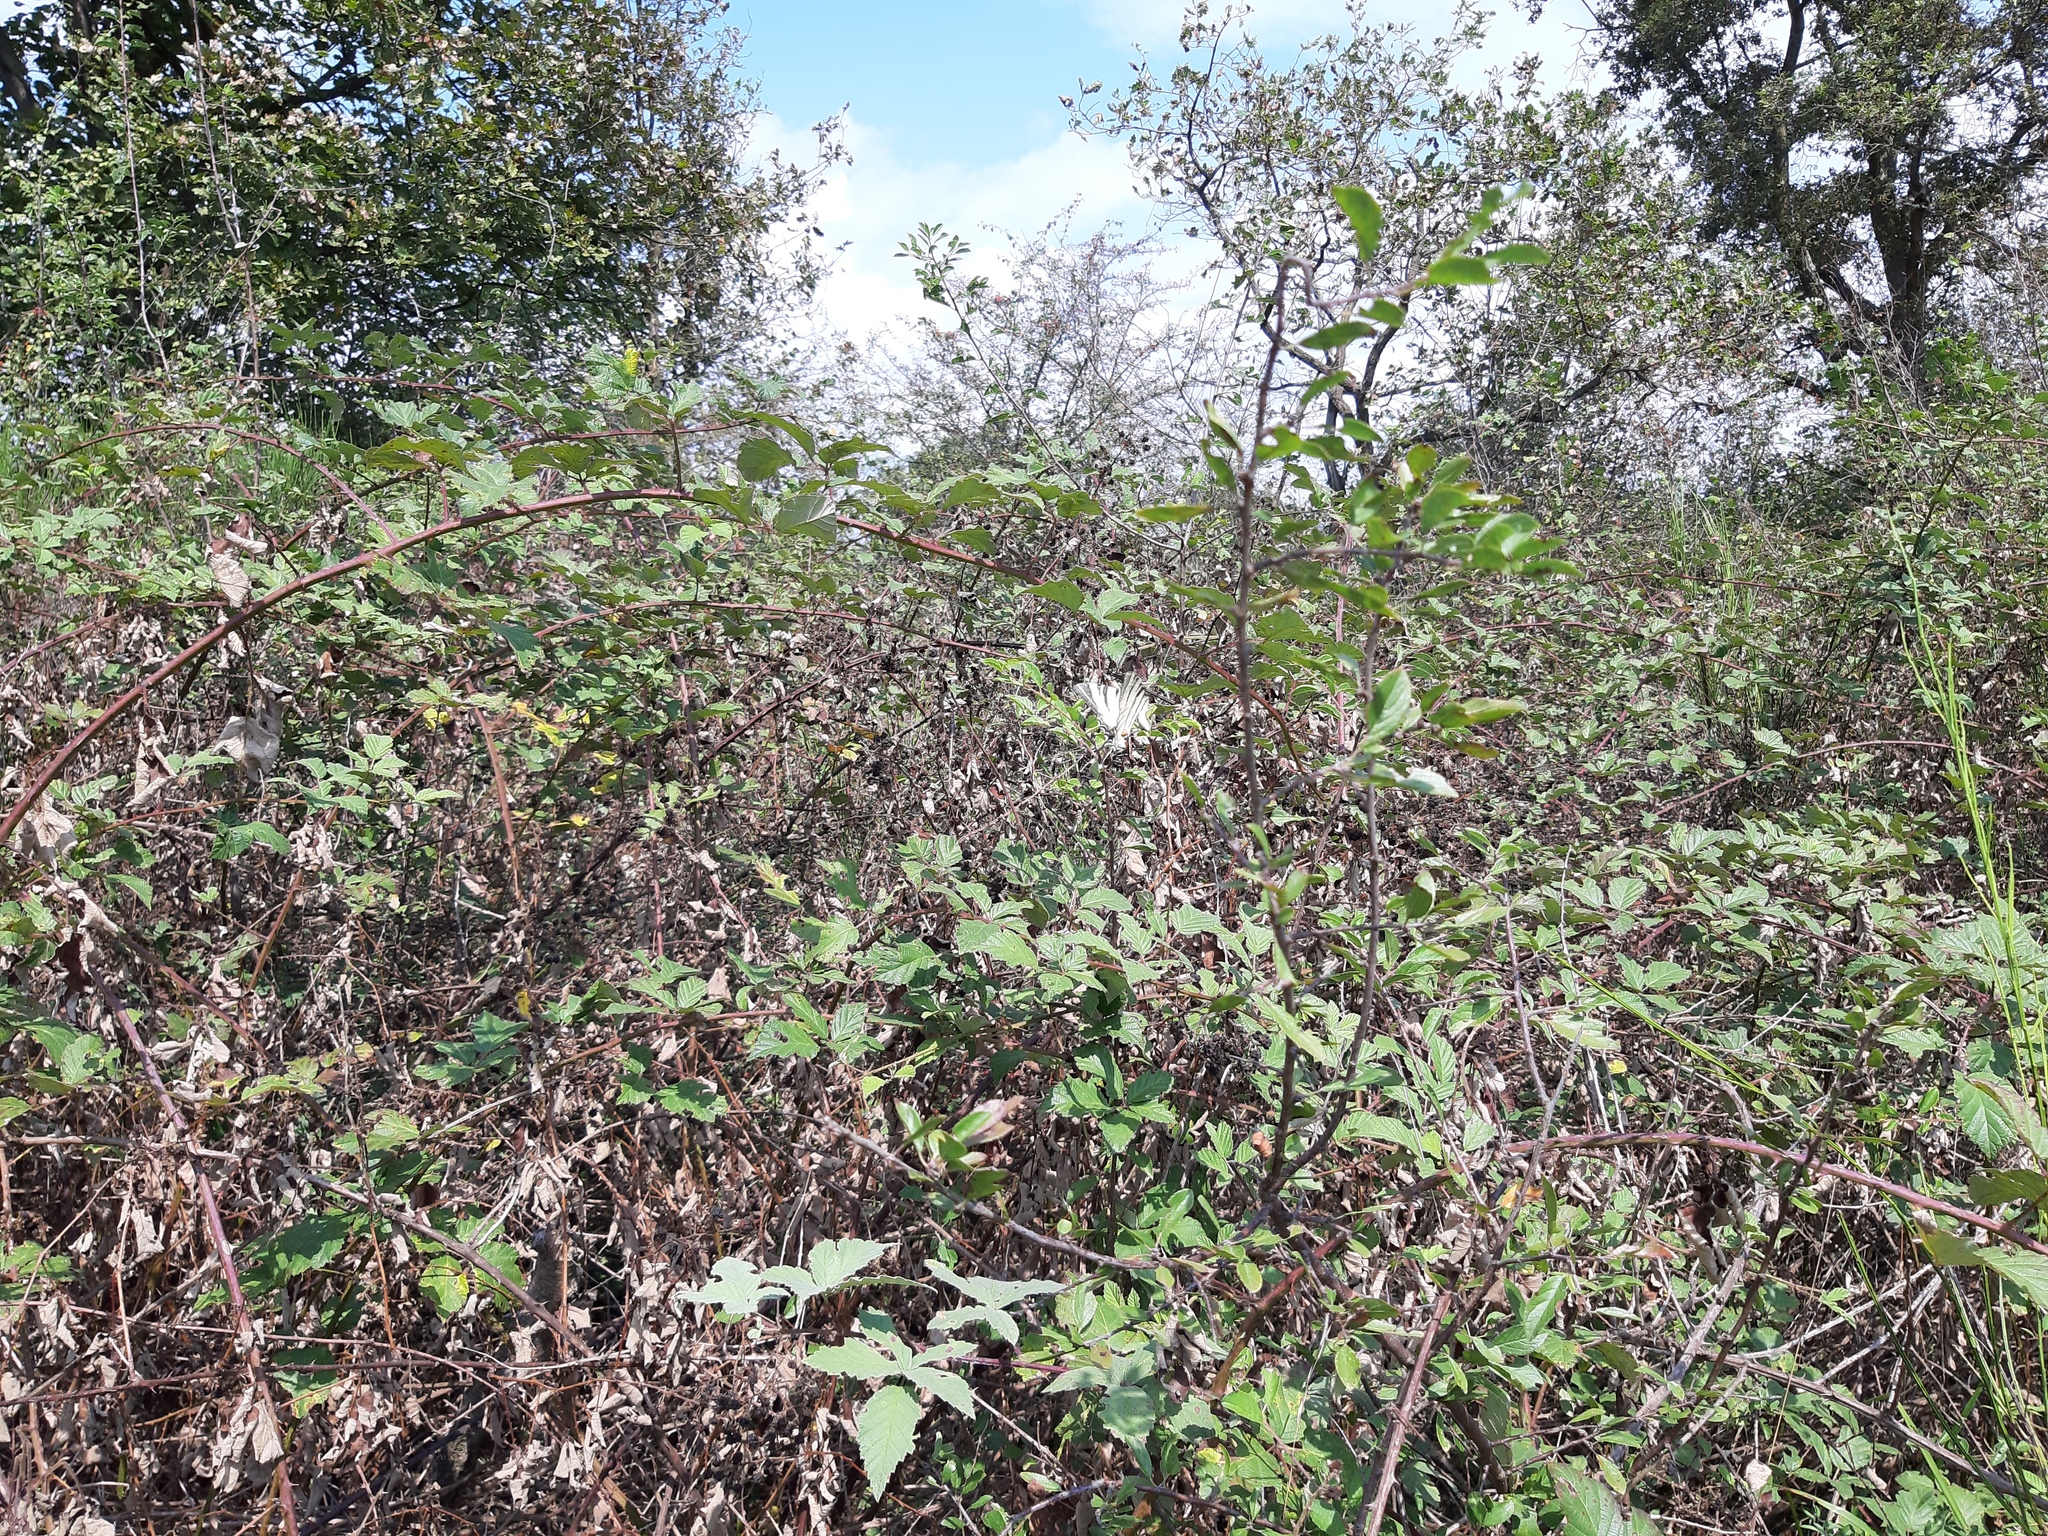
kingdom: Animalia
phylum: Arthropoda
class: Insecta
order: Lepidoptera
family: Papilionidae
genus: Iphiclides
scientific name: Iphiclides podalirius
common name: Scarce swallowtail
